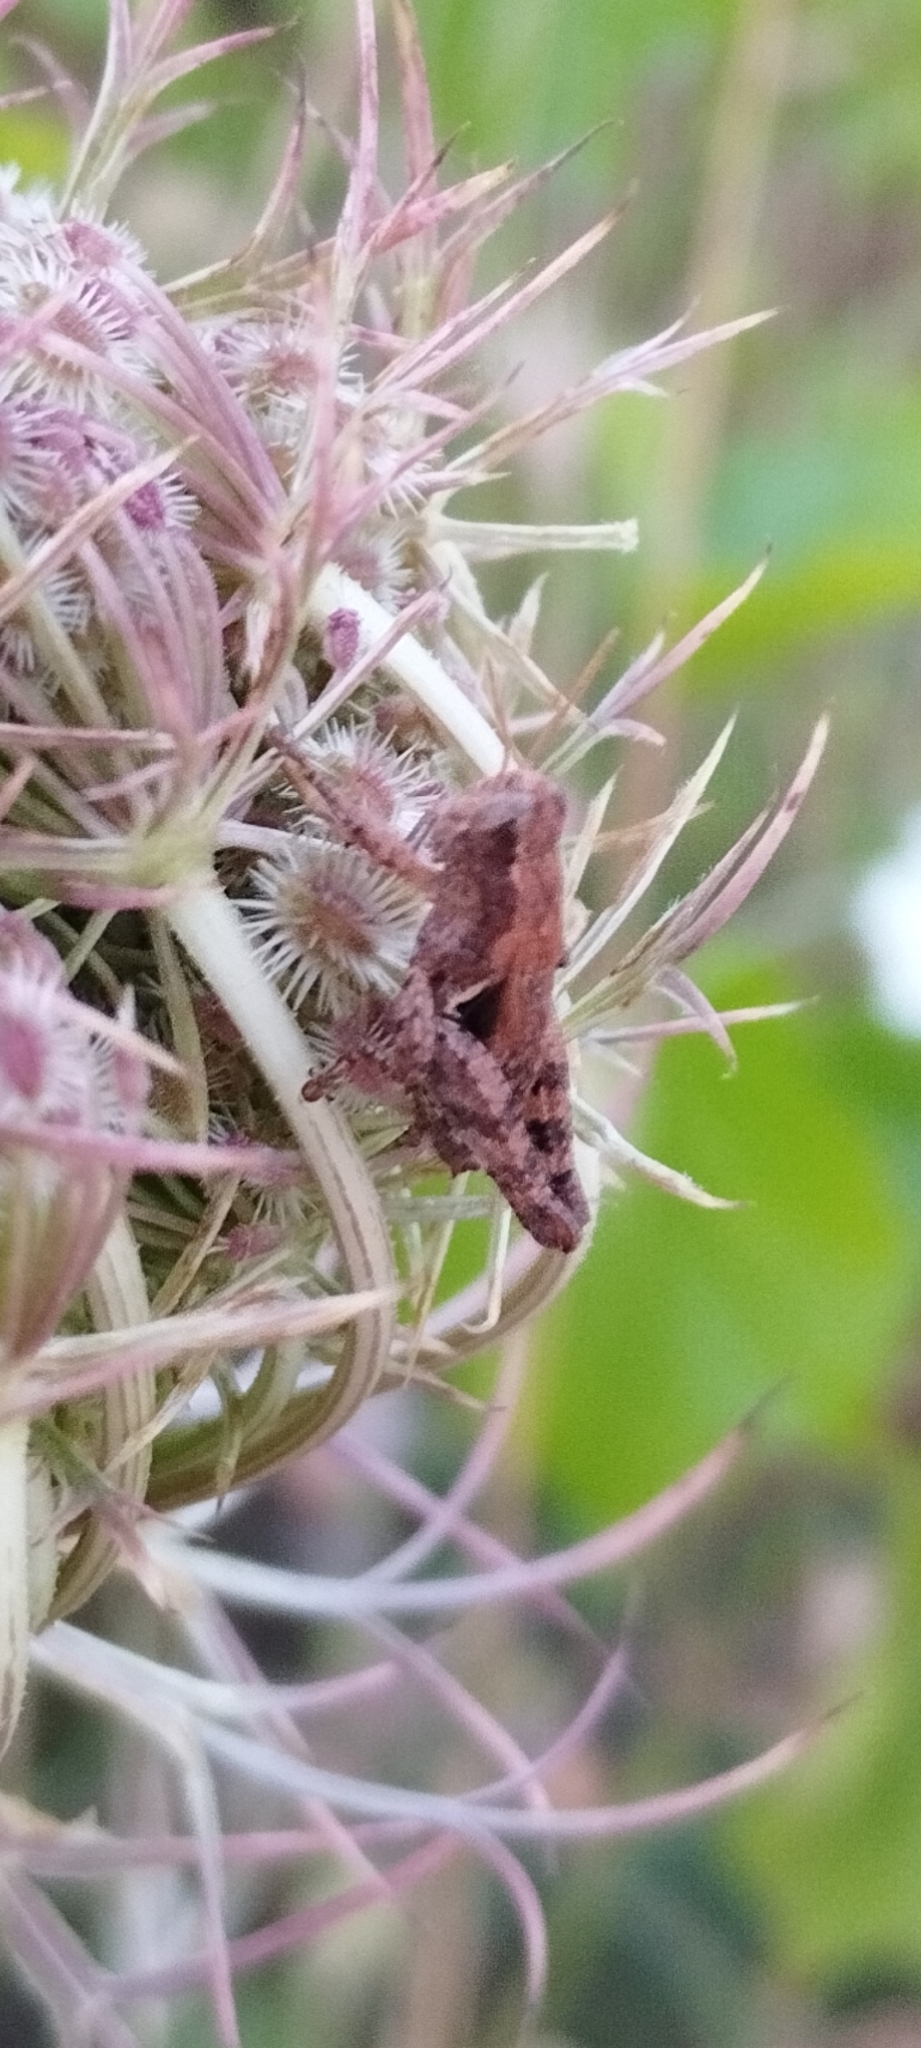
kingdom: Animalia
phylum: Arthropoda
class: Insecta
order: Orthoptera
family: Acrididae
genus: Pezotettix
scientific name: Pezotettix giornae
